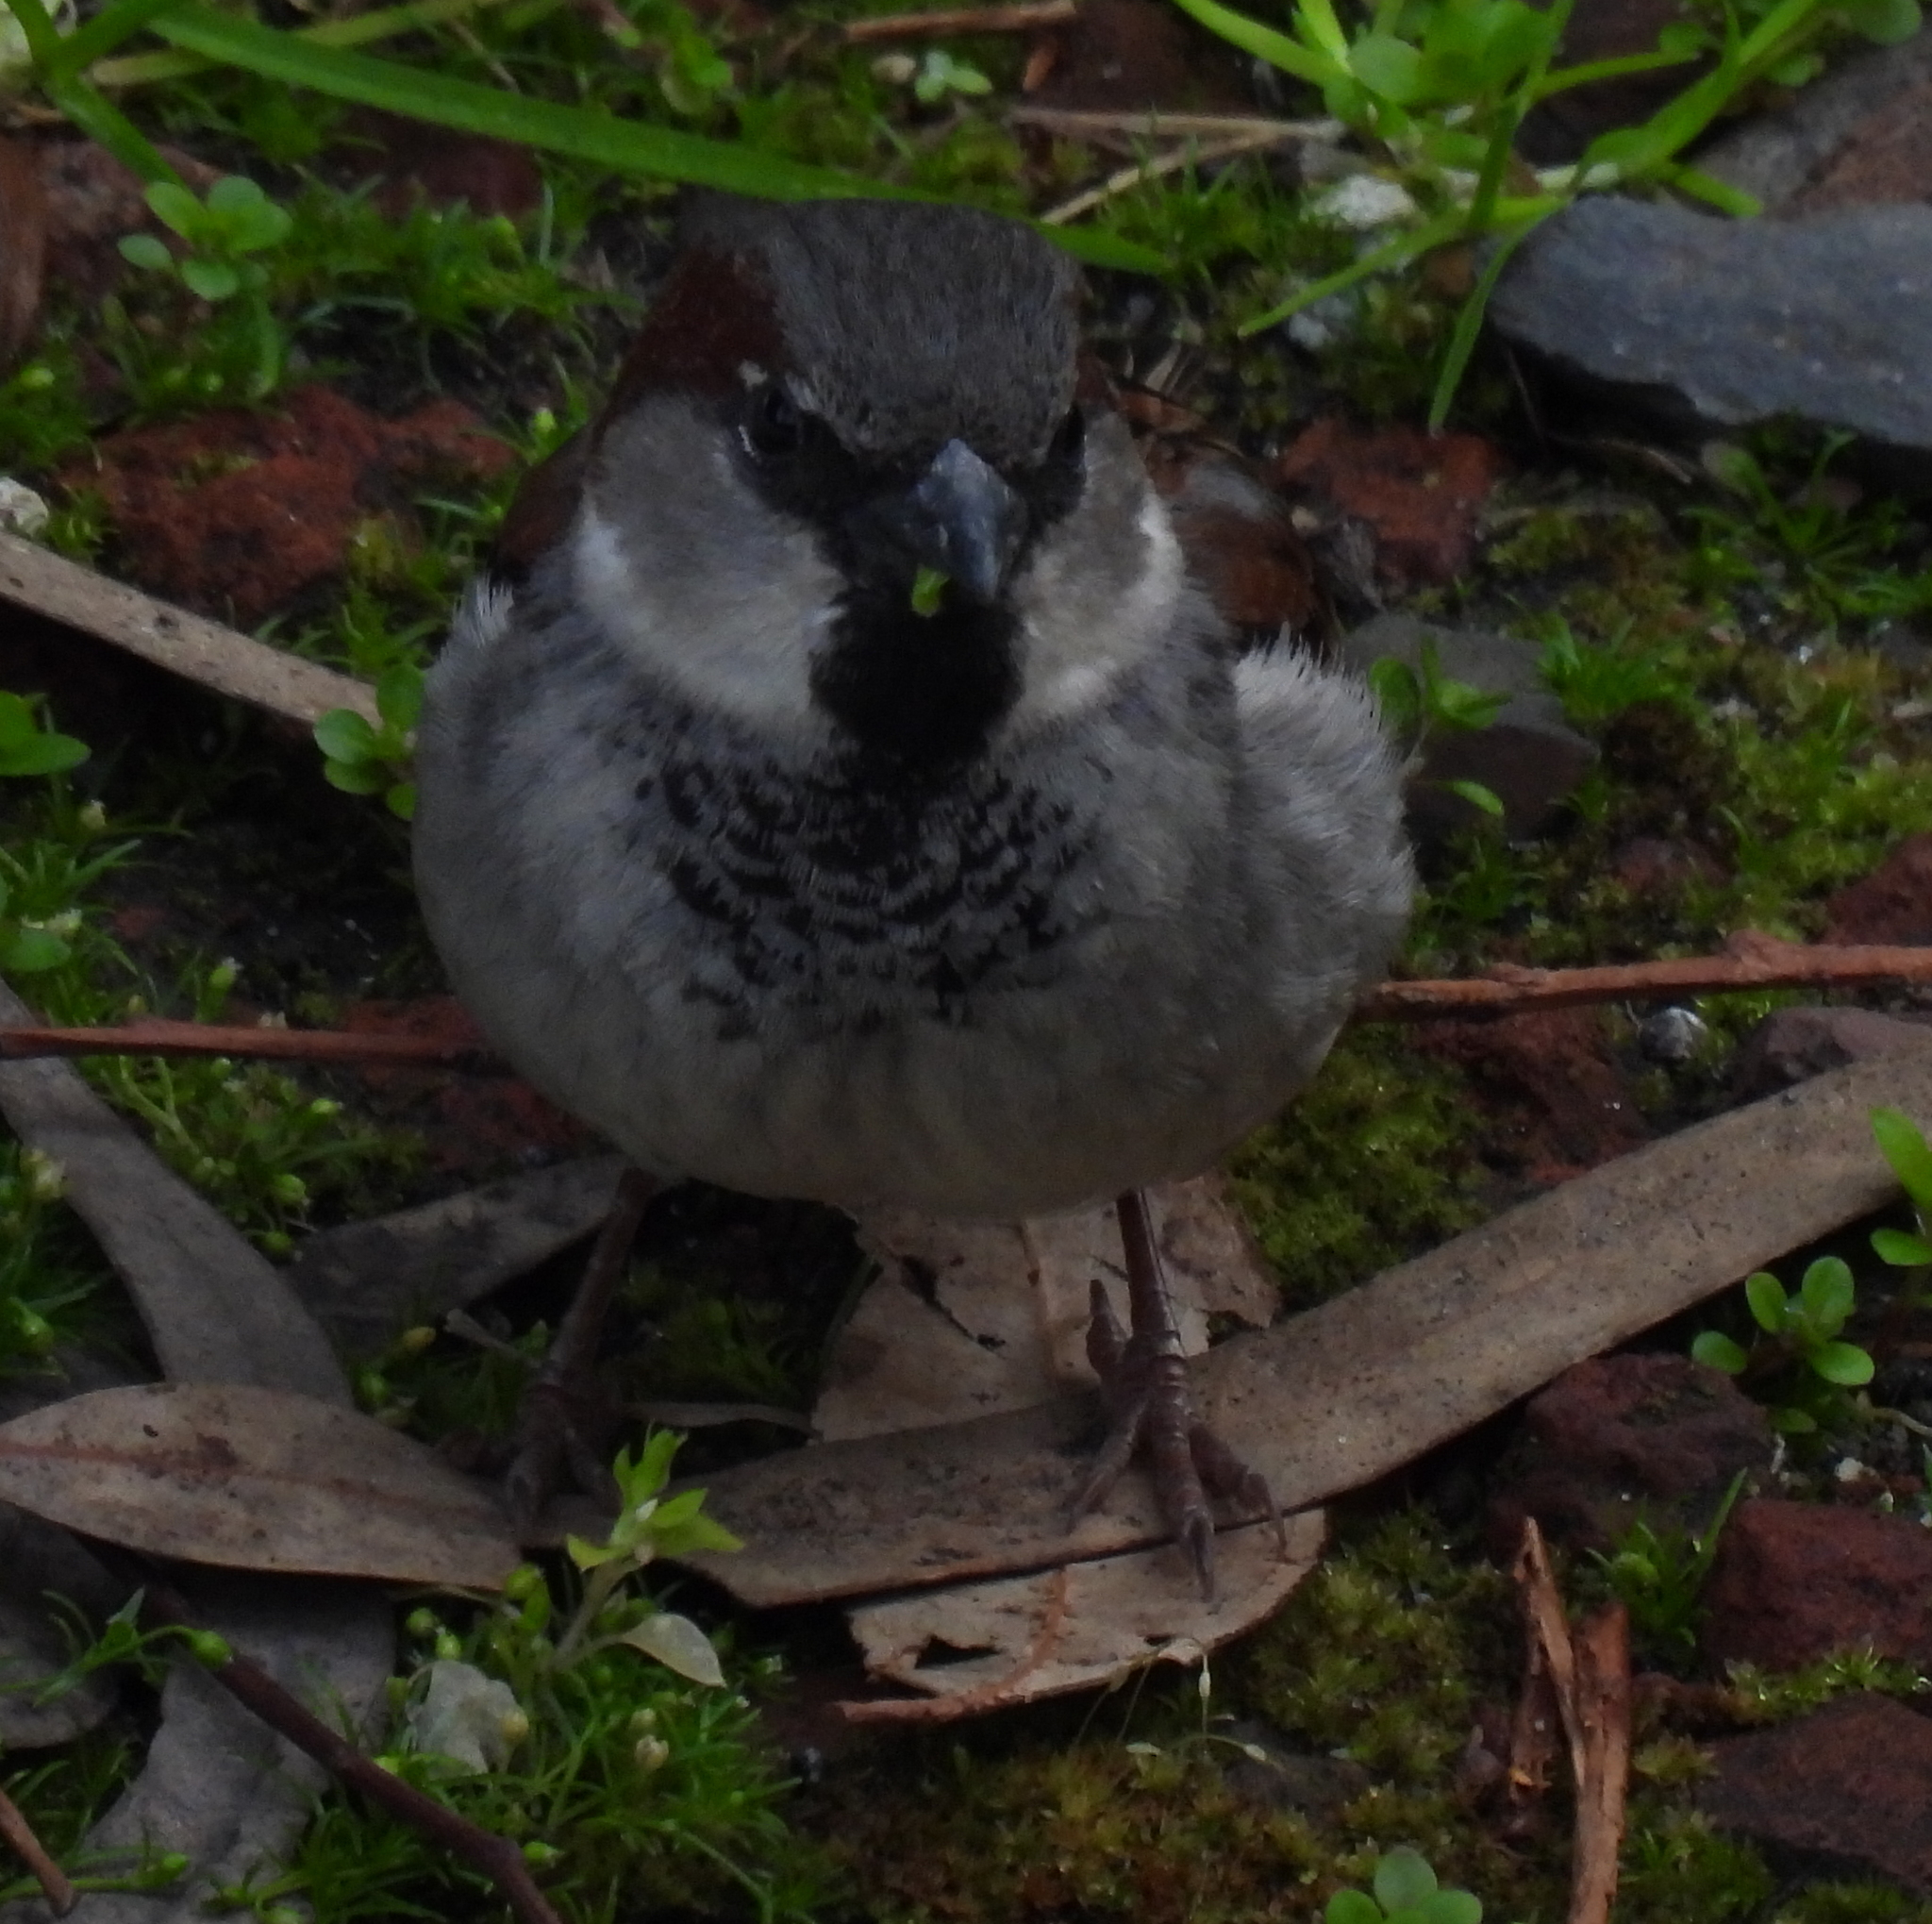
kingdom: Animalia
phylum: Chordata
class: Aves
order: Passeriformes
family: Passeridae
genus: Passer
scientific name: Passer domesticus
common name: House sparrow
